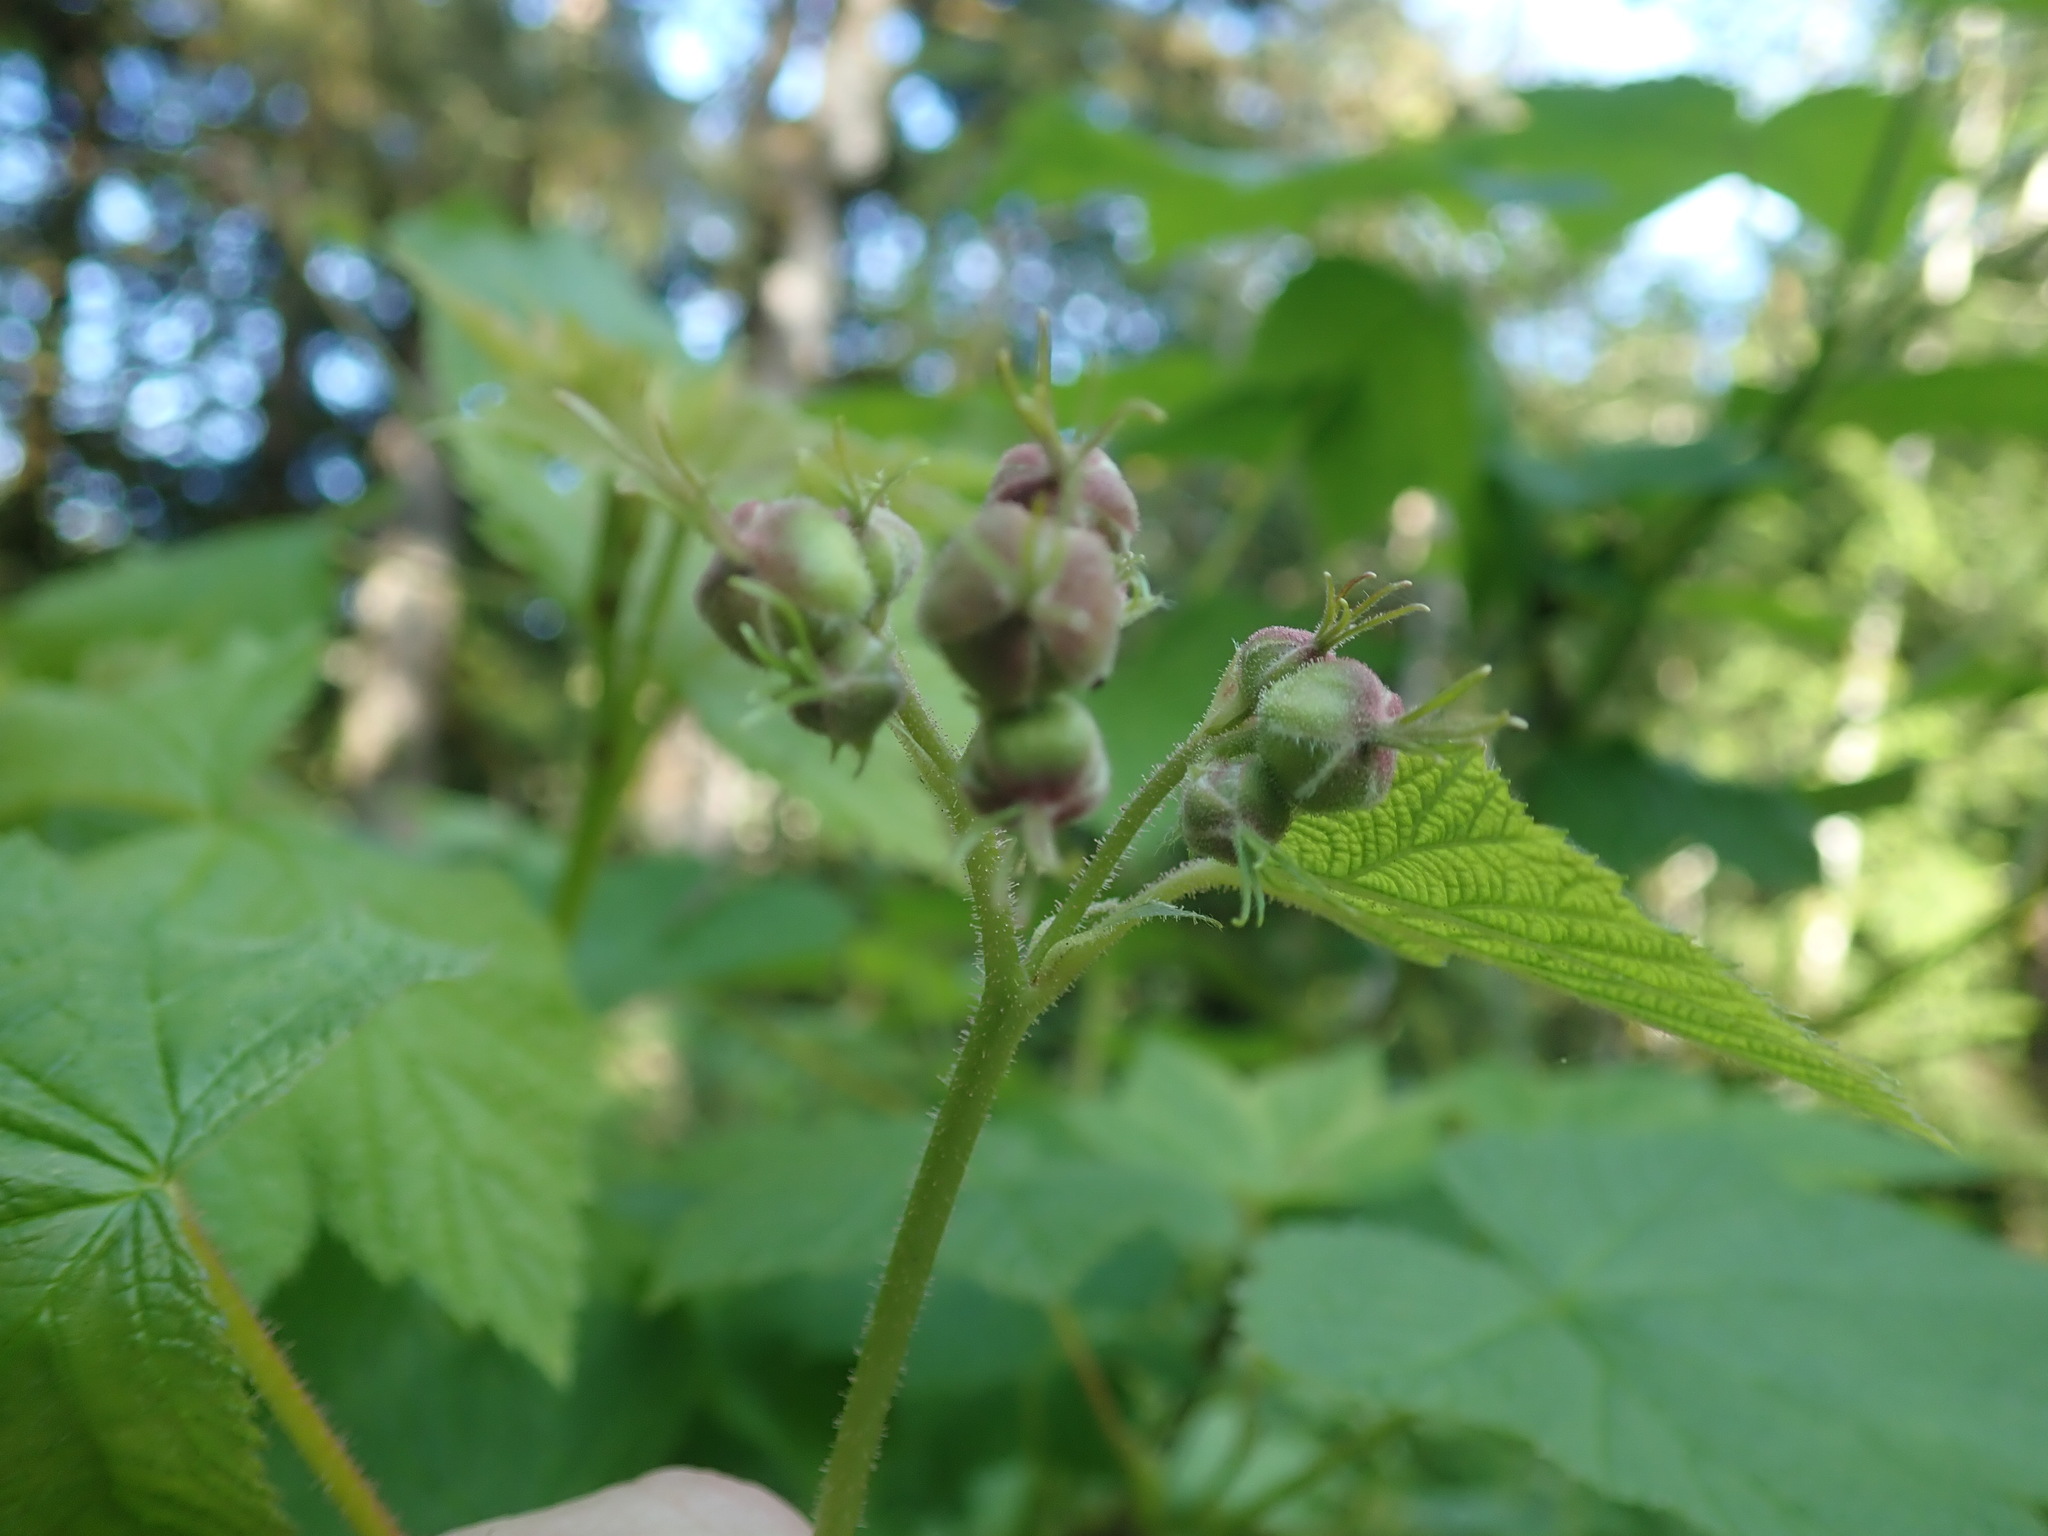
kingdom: Plantae
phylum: Tracheophyta
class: Magnoliopsida
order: Rosales
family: Rosaceae
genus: Rubus
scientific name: Rubus parviflorus
